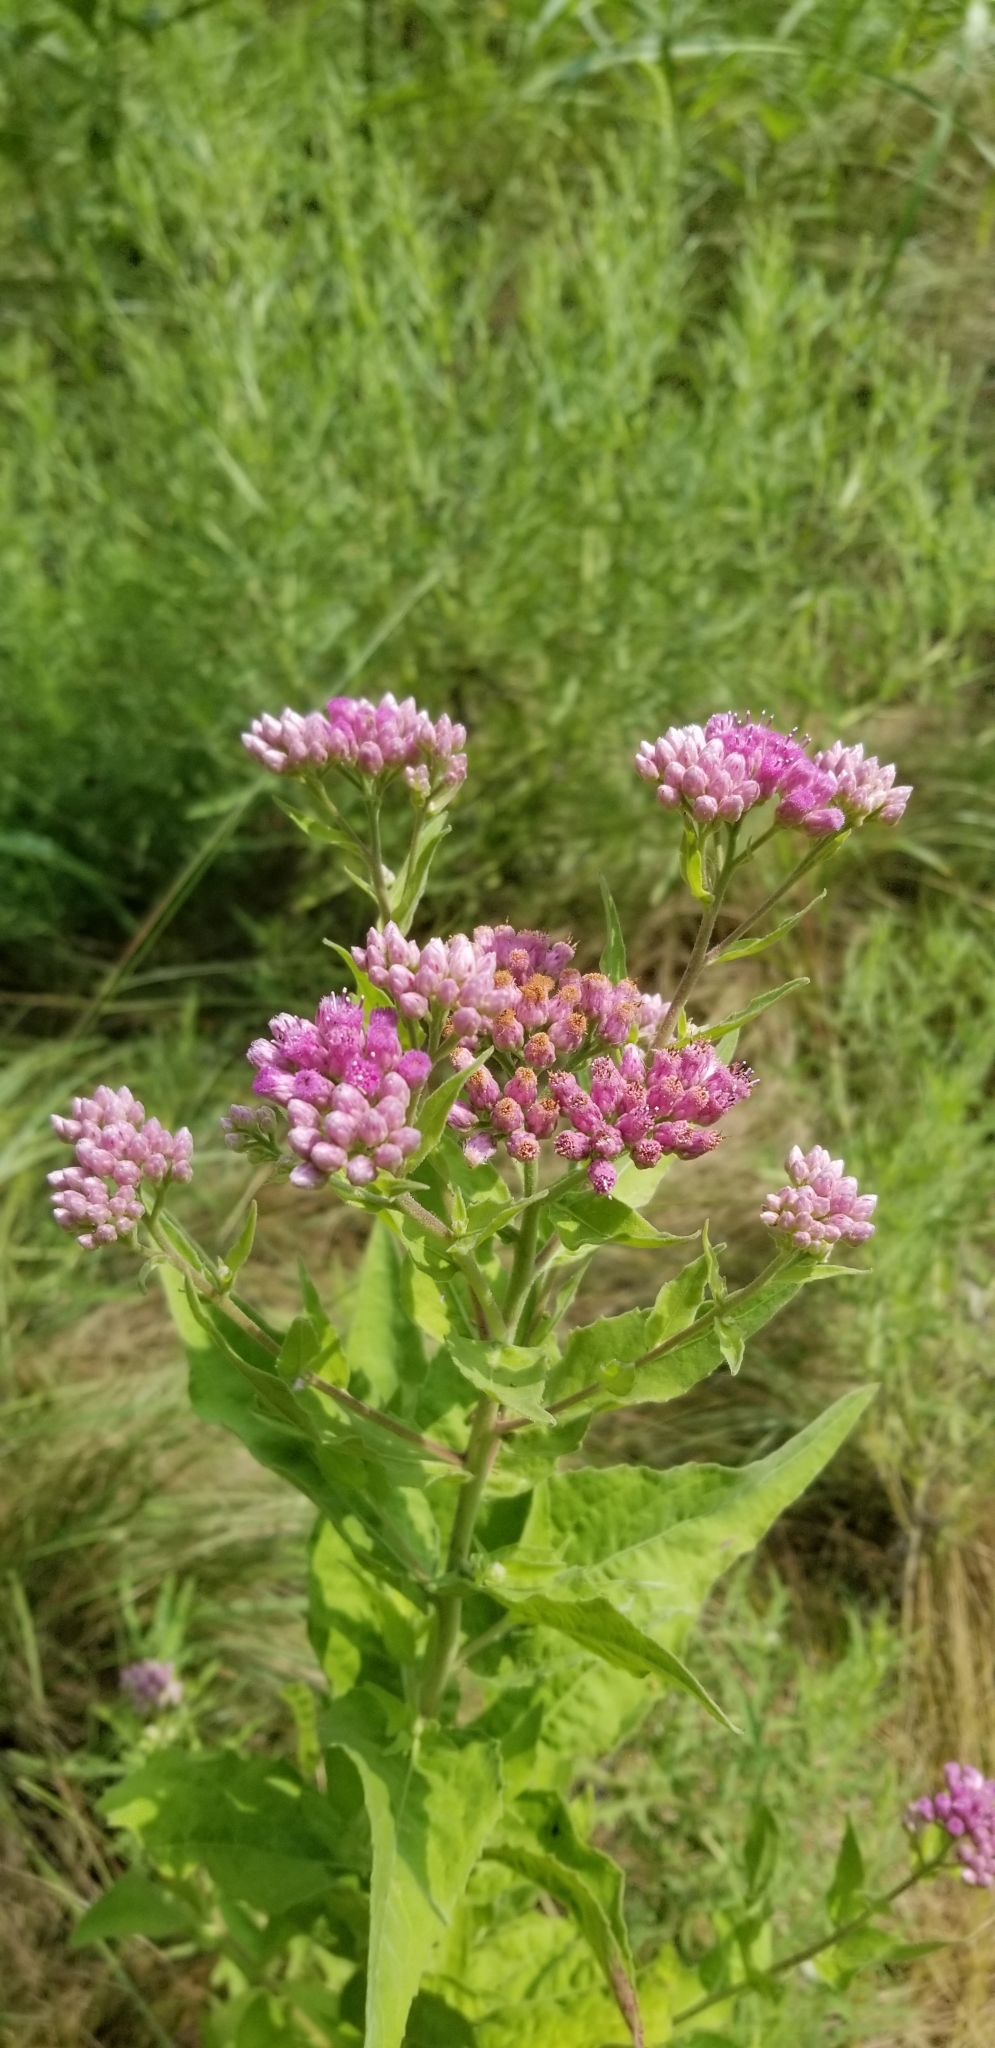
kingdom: Plantae
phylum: Tracheophyta
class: Magnoliopsida
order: Asterales
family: Asteraceae
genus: Pluchea
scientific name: Pluchea odorata
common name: Saltmarsh fleabane
